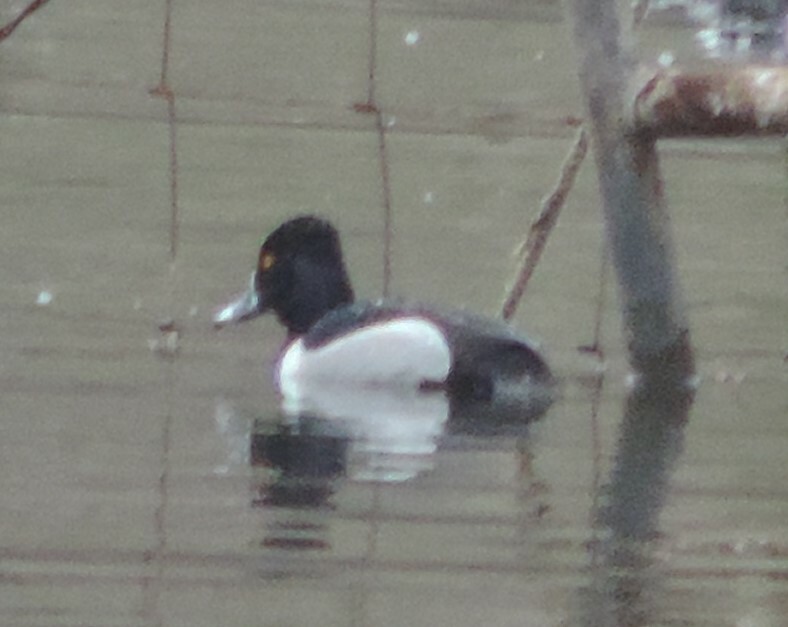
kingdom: Animalia
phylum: Chordata
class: Aves
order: Anseriformes
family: Anatidae
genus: Aythya
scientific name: Aythya collaris
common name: Ring-necked duck
